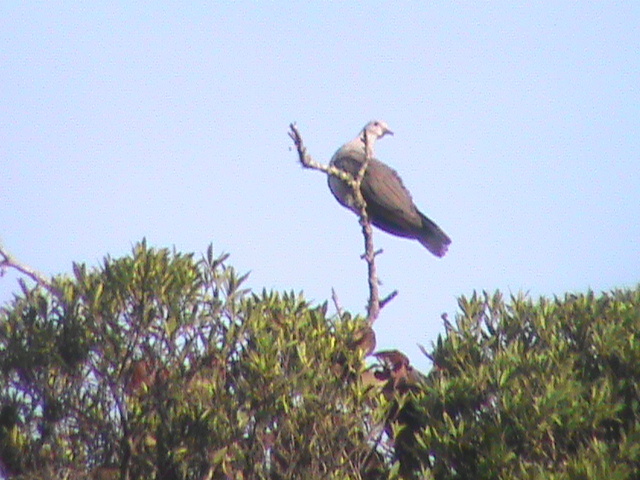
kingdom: Animalia
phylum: Chordata
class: Aves
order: Columbiformes
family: Columbidae
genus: Ducula
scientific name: Ducula badia
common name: Mountain imperial pigeon
